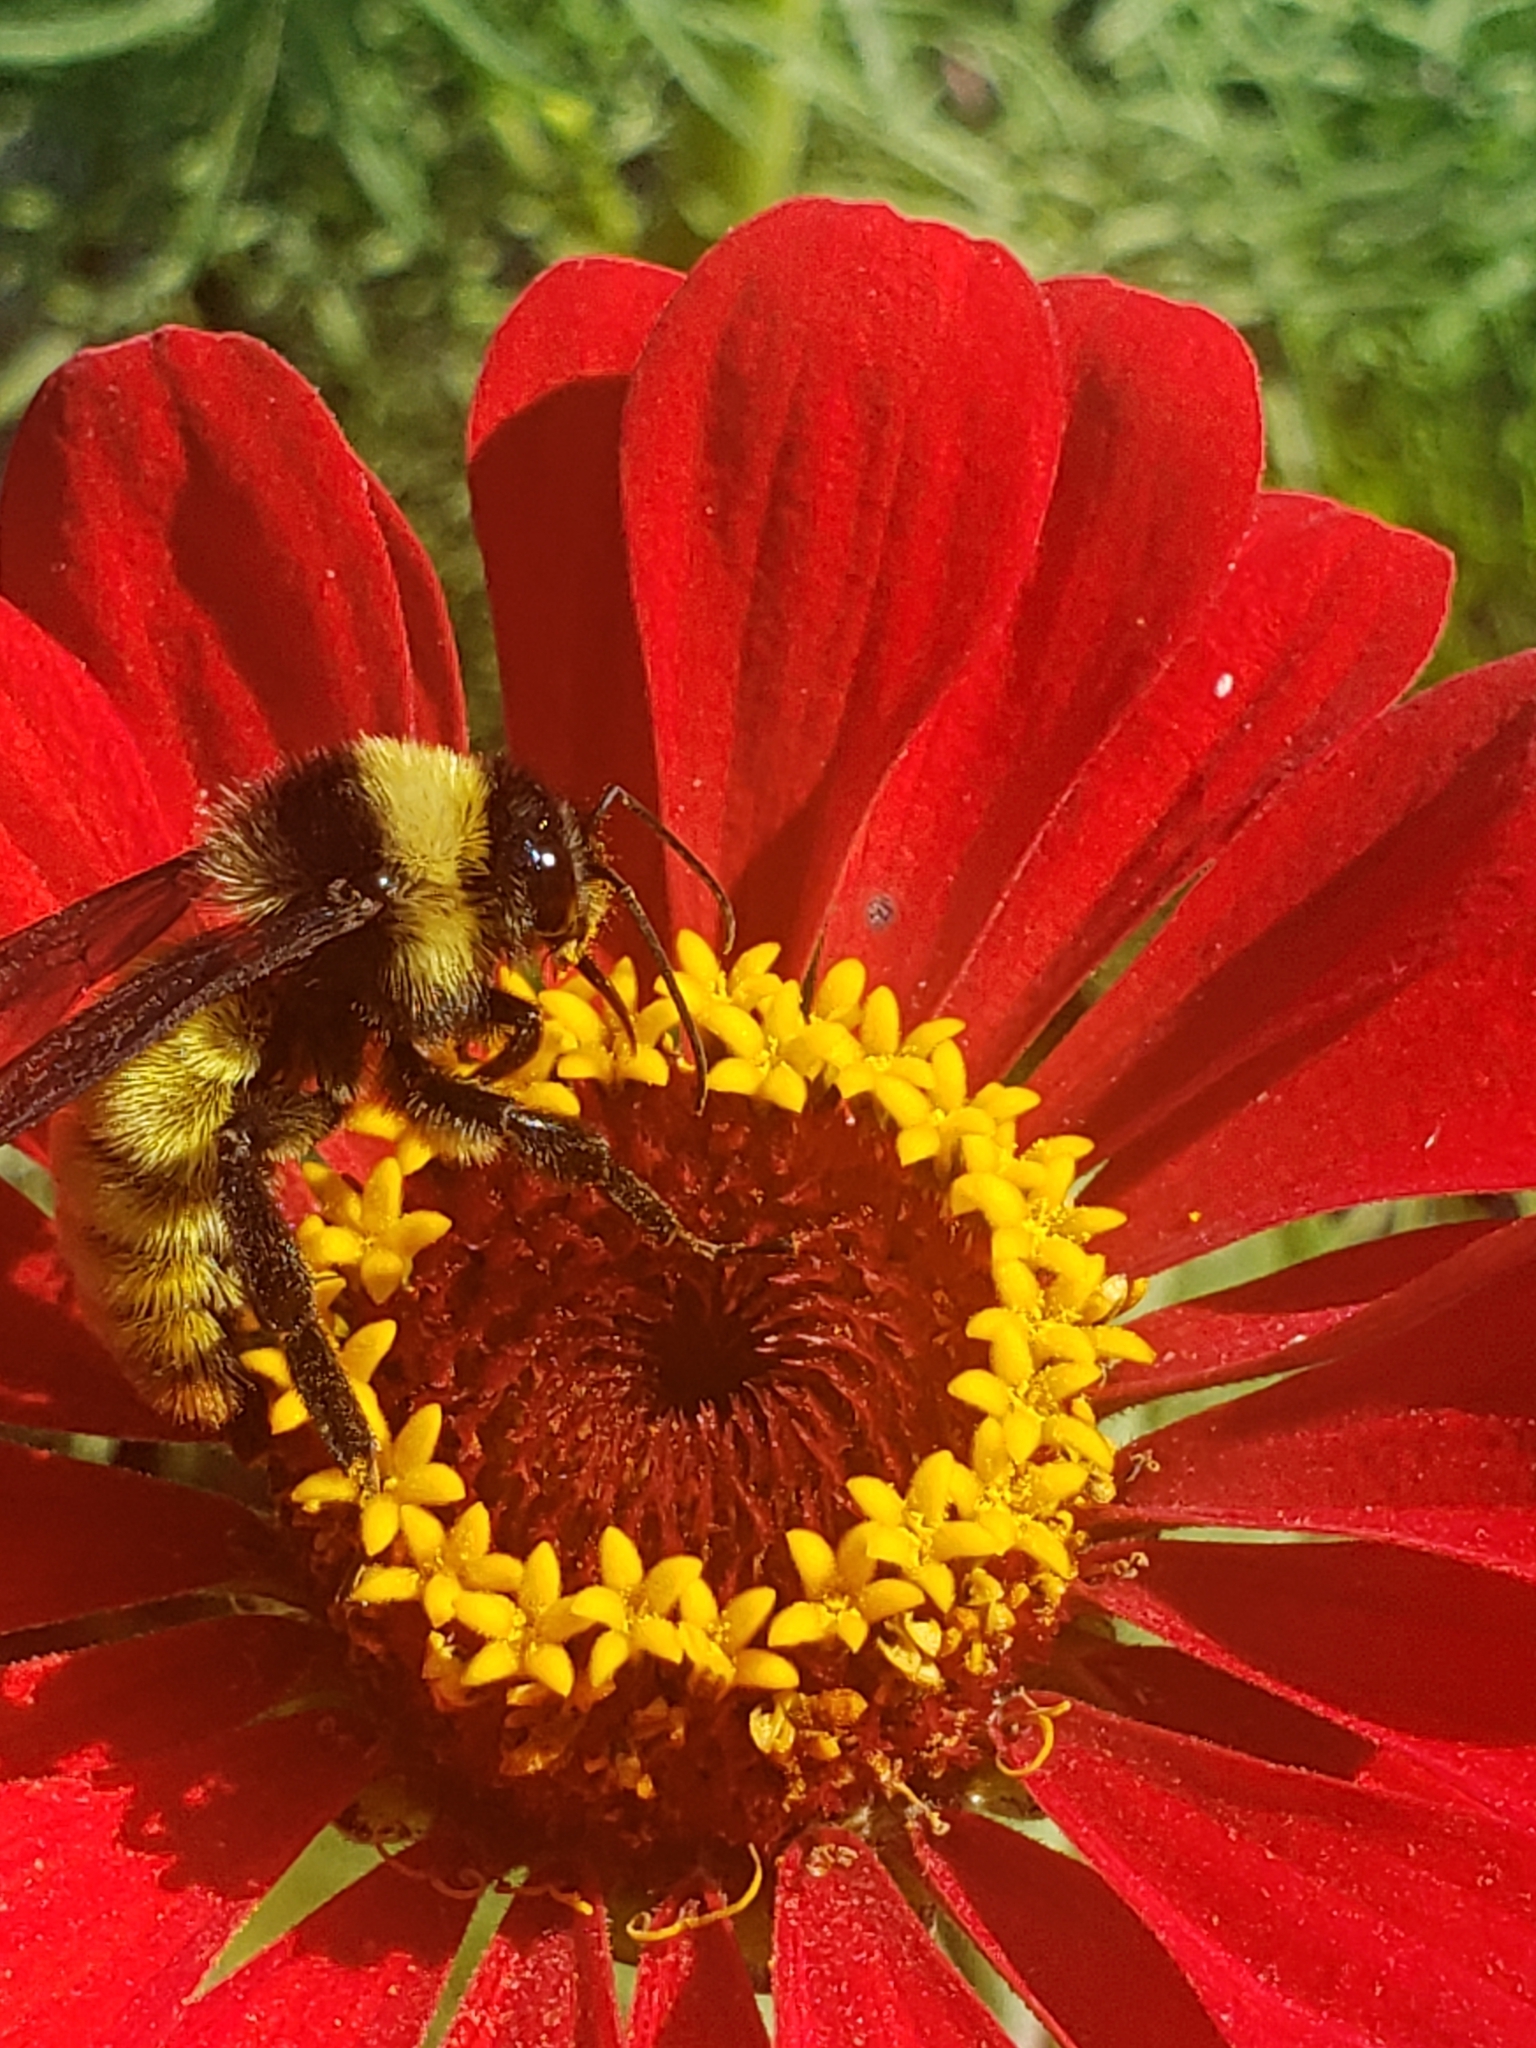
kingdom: Animalia
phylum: Arthropoda
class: Insecta
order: Hymenoptera
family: Apidae
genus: Bombus
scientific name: Bombus pensylvanicus
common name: Bumble bee
